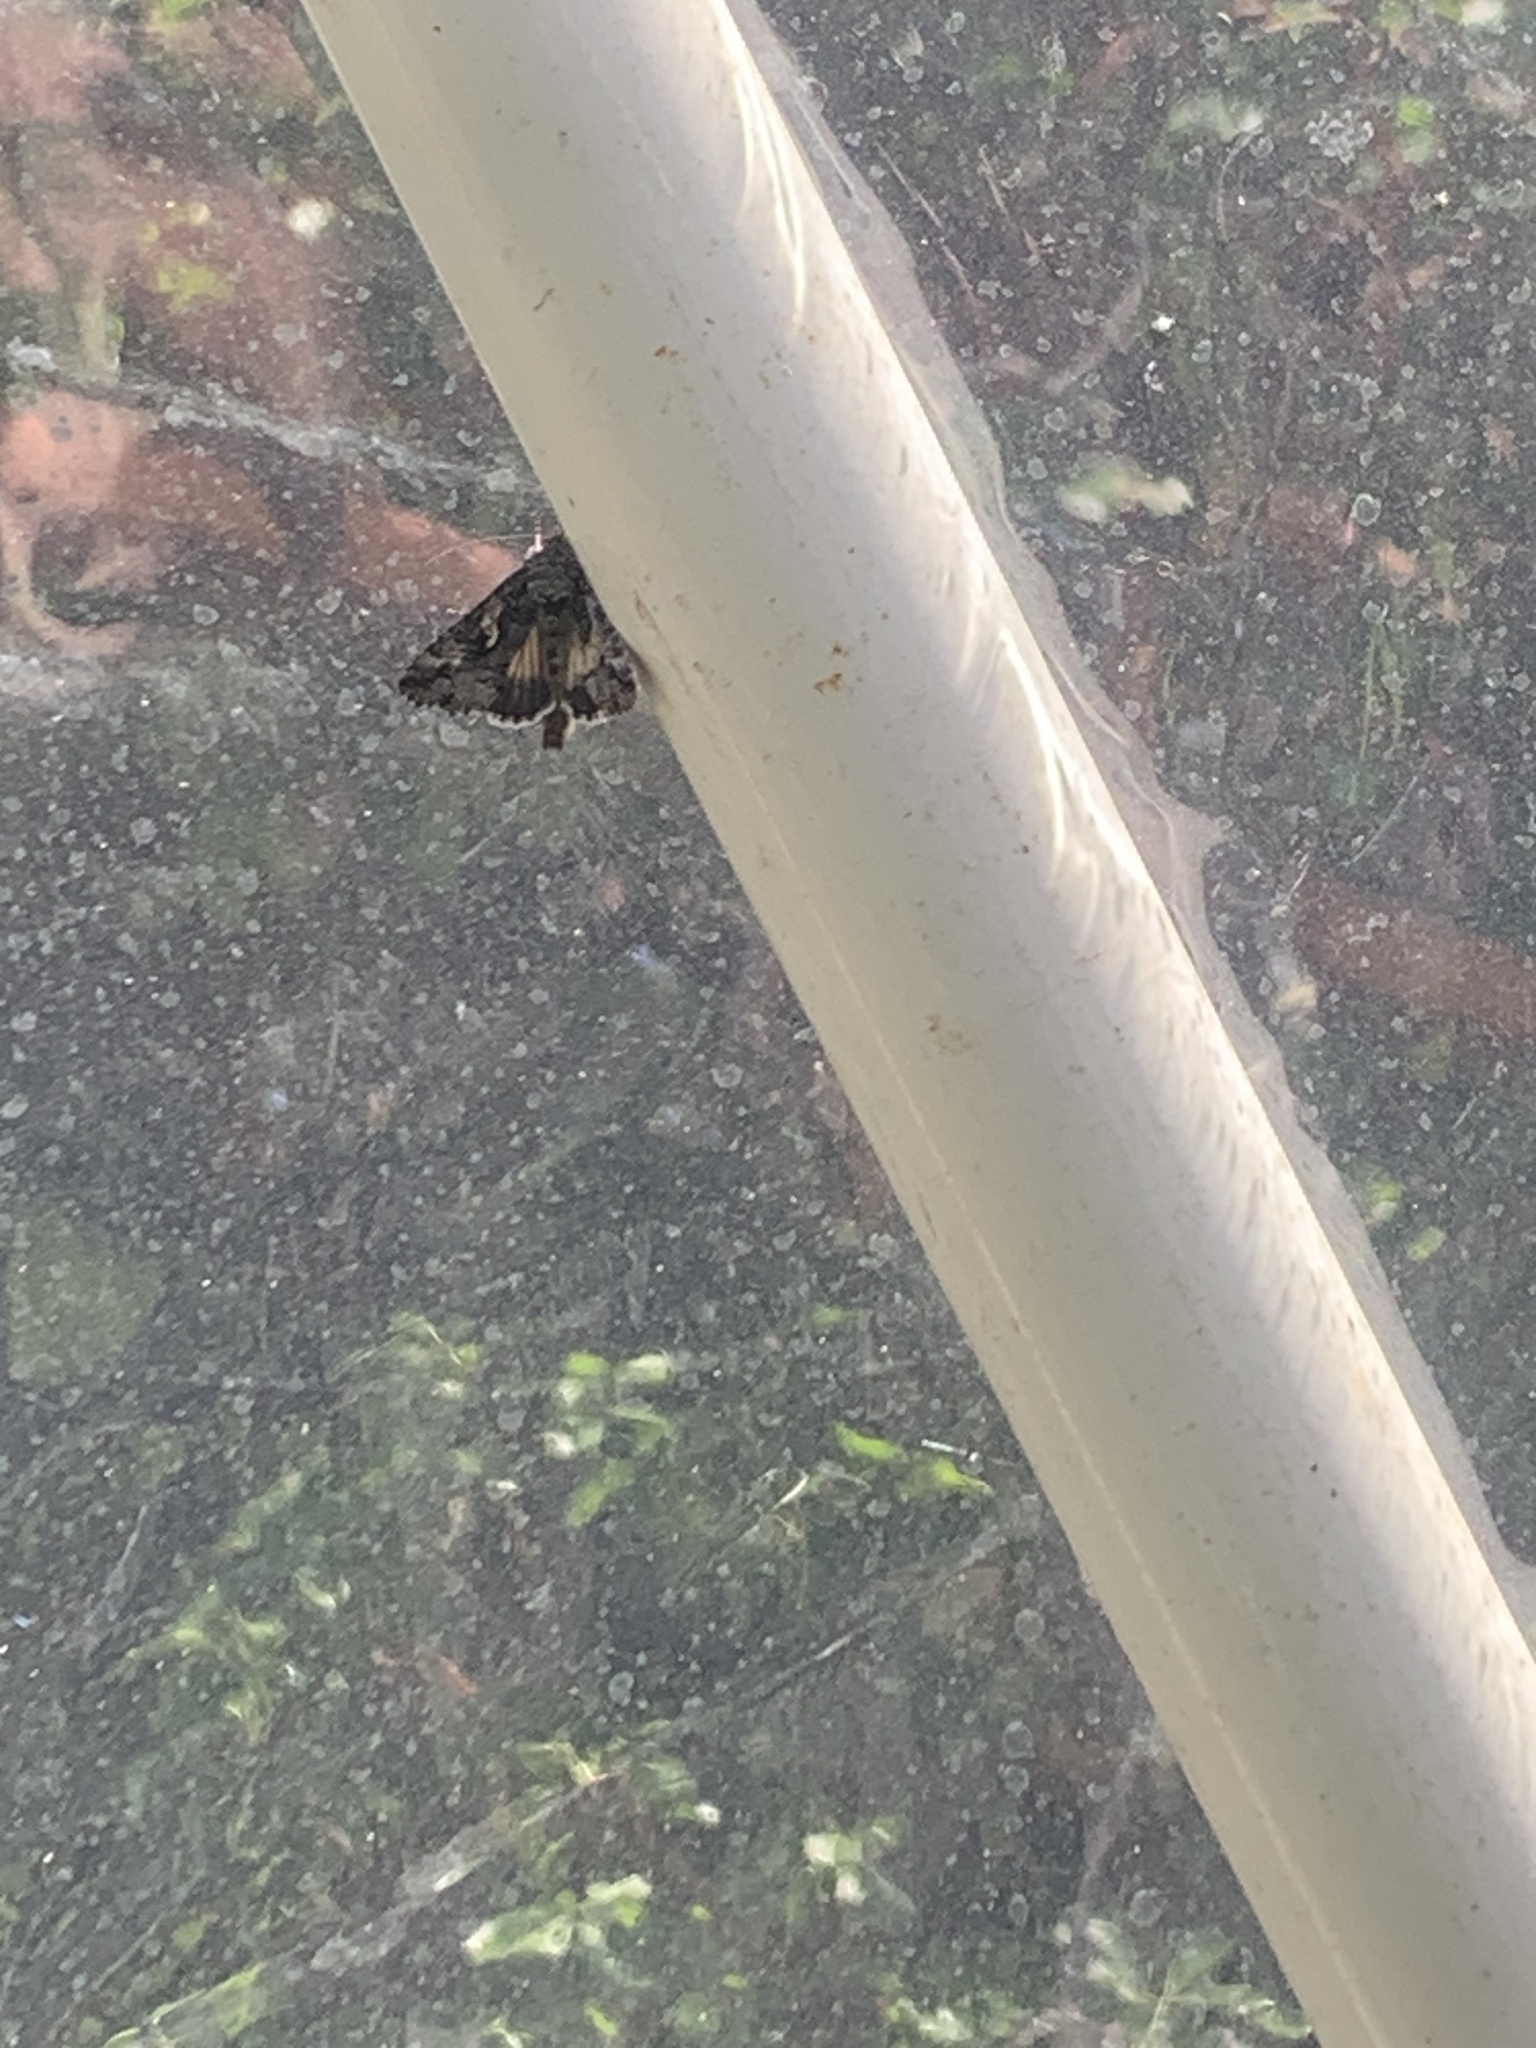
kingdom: Animalia
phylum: Arthropoda
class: Insecta
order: Lepidoptera
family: Noctuidae
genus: Autographa
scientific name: Autographa californica
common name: Alfalfa looper
